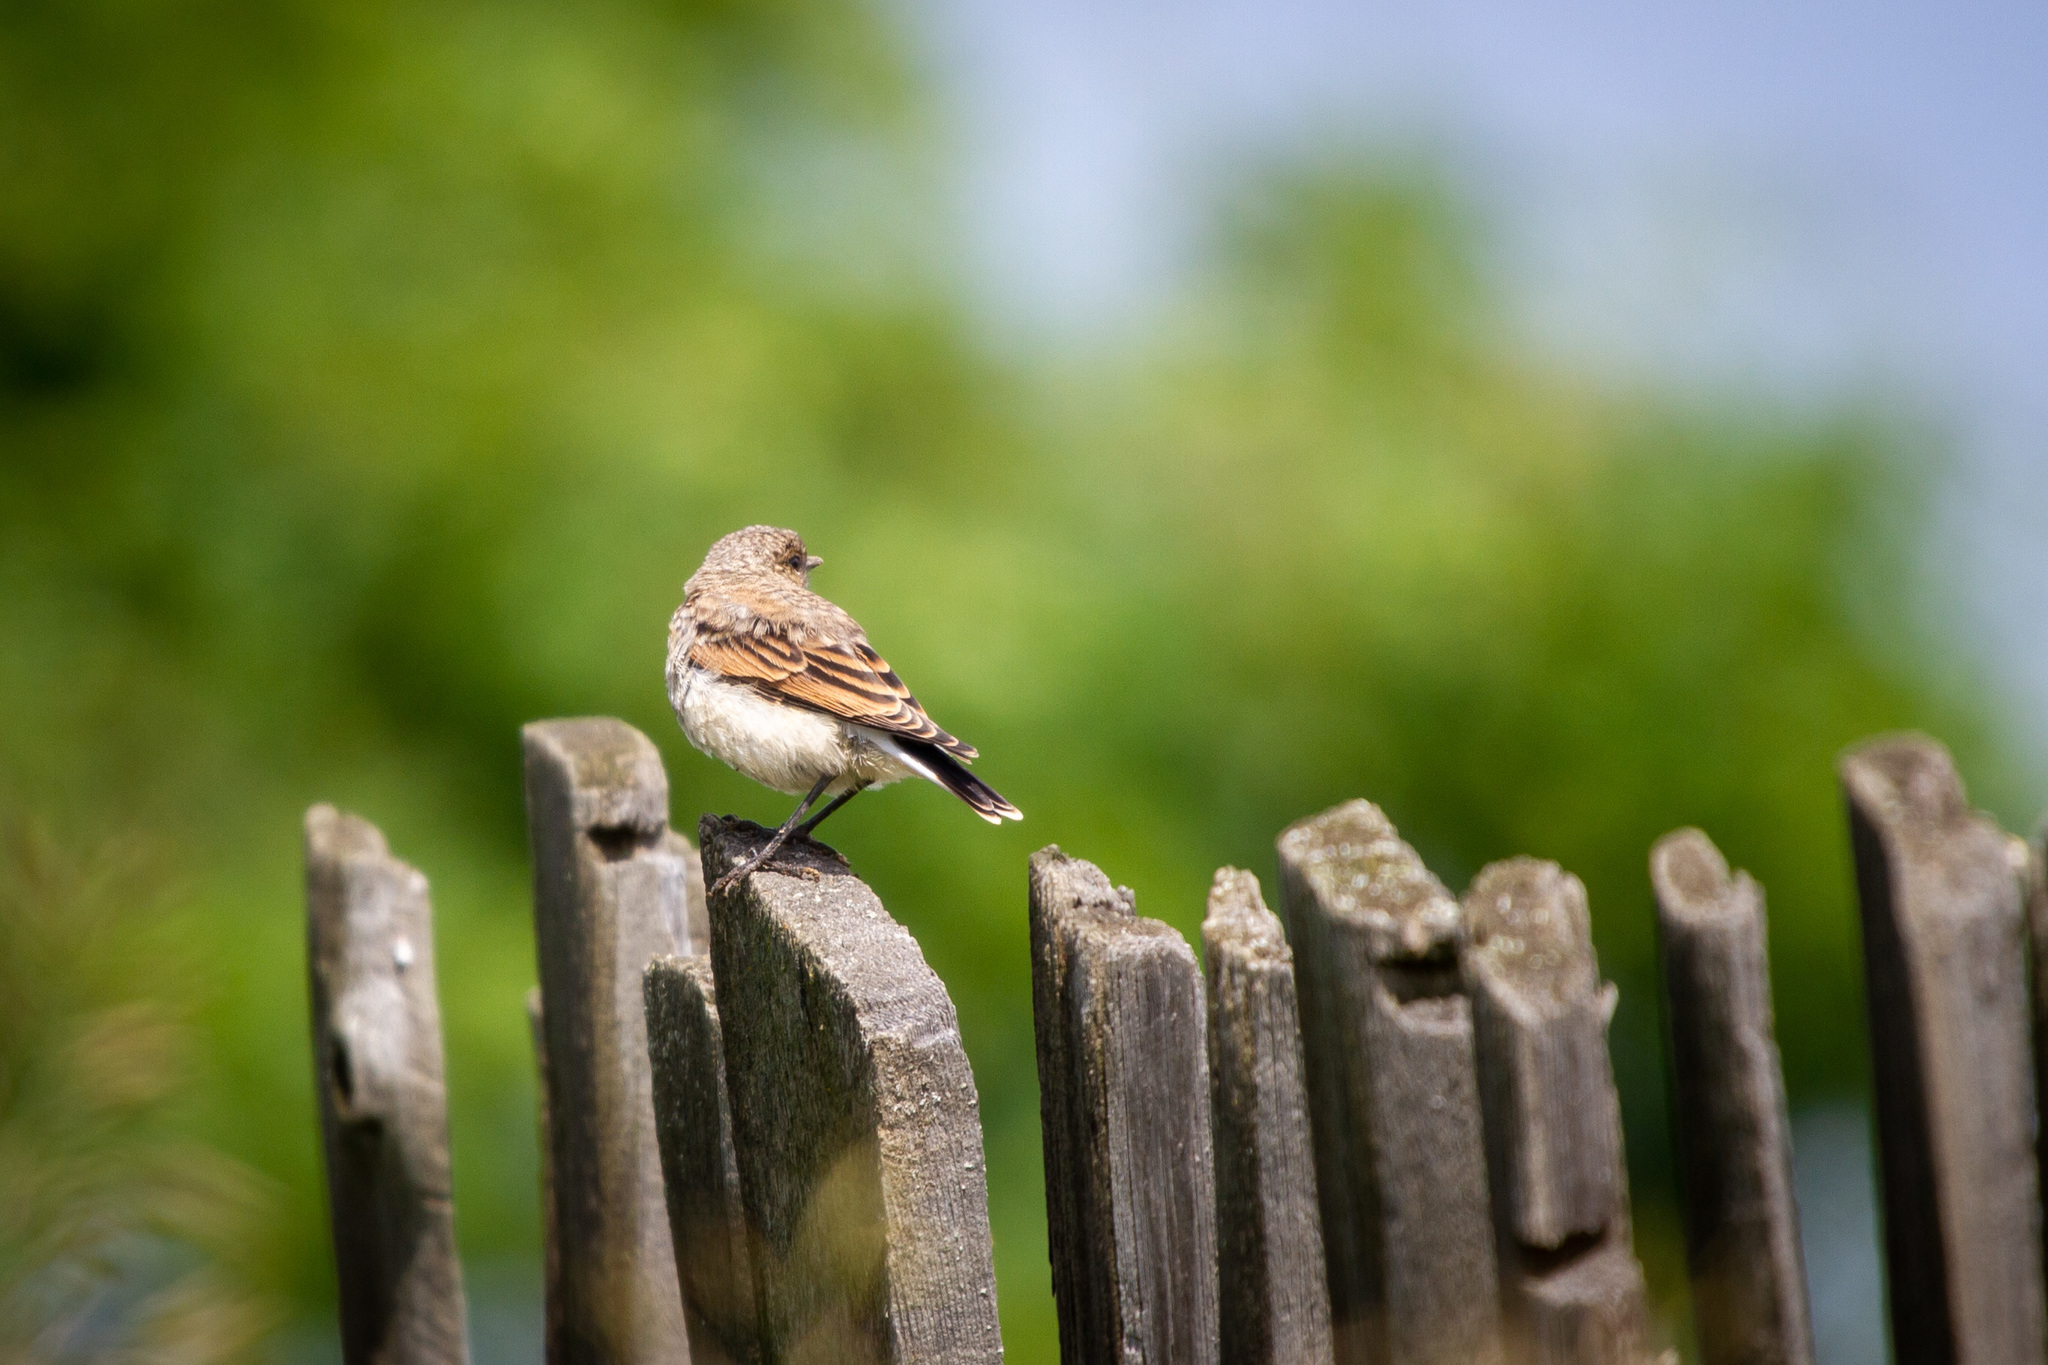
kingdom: Animalia
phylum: Chordata
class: Aves
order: Passeriformes
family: Muscicapidae
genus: Oenanthe
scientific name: Oenanthe oenanthe
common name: Northern wheatear
